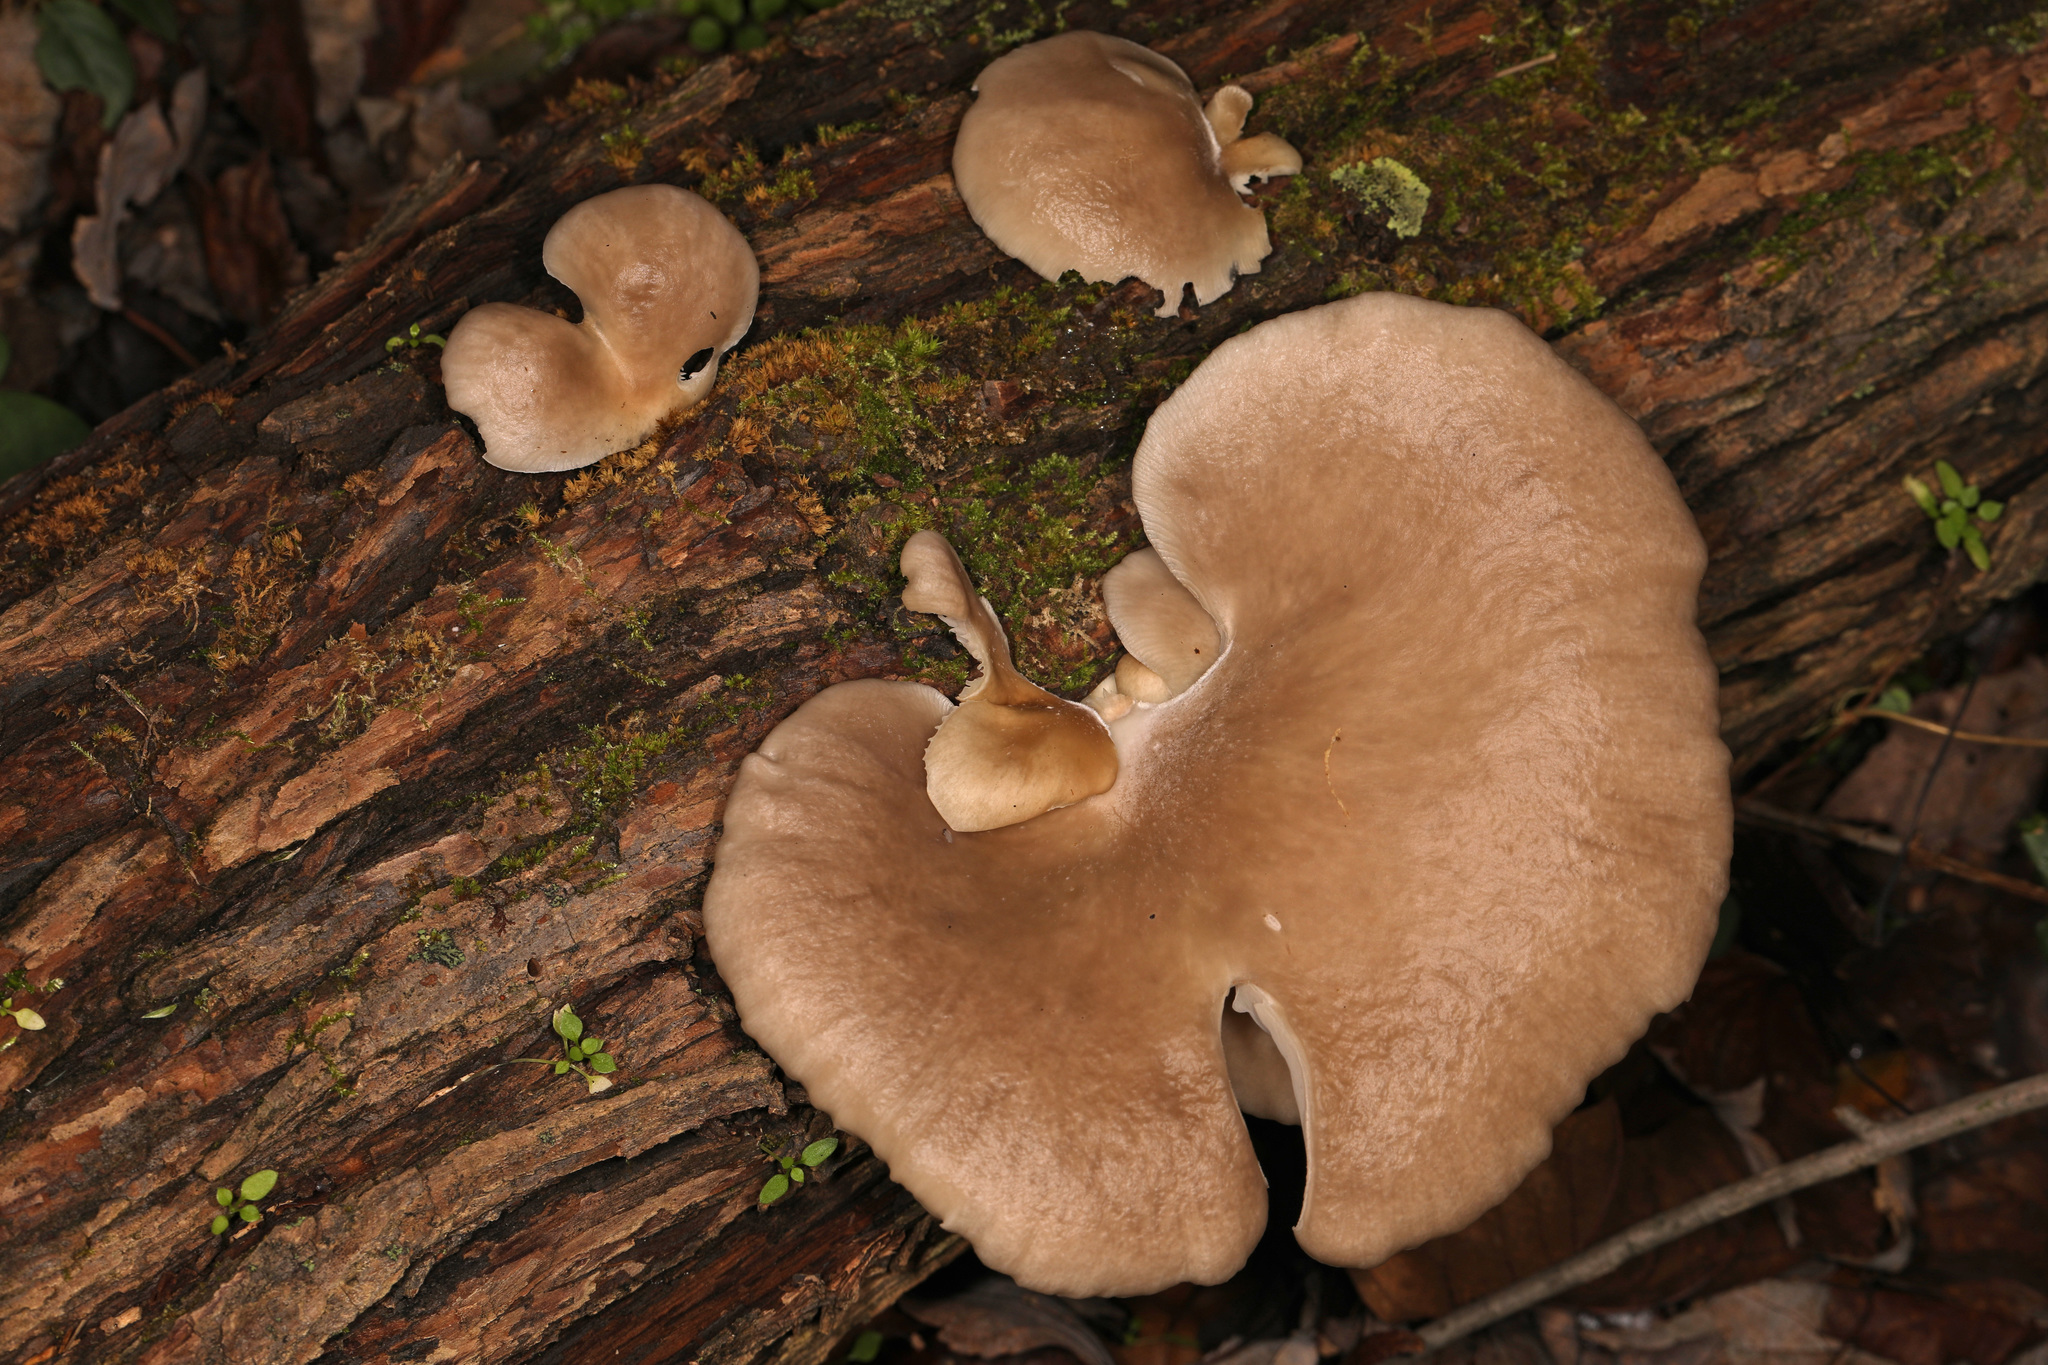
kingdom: Fungi
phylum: Basidiomycota
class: Agaricomycetes
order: Agaricales
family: Pleurotaceae
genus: Pleurotus
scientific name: Pleurotus ostreatus
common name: Oyster mushroom
